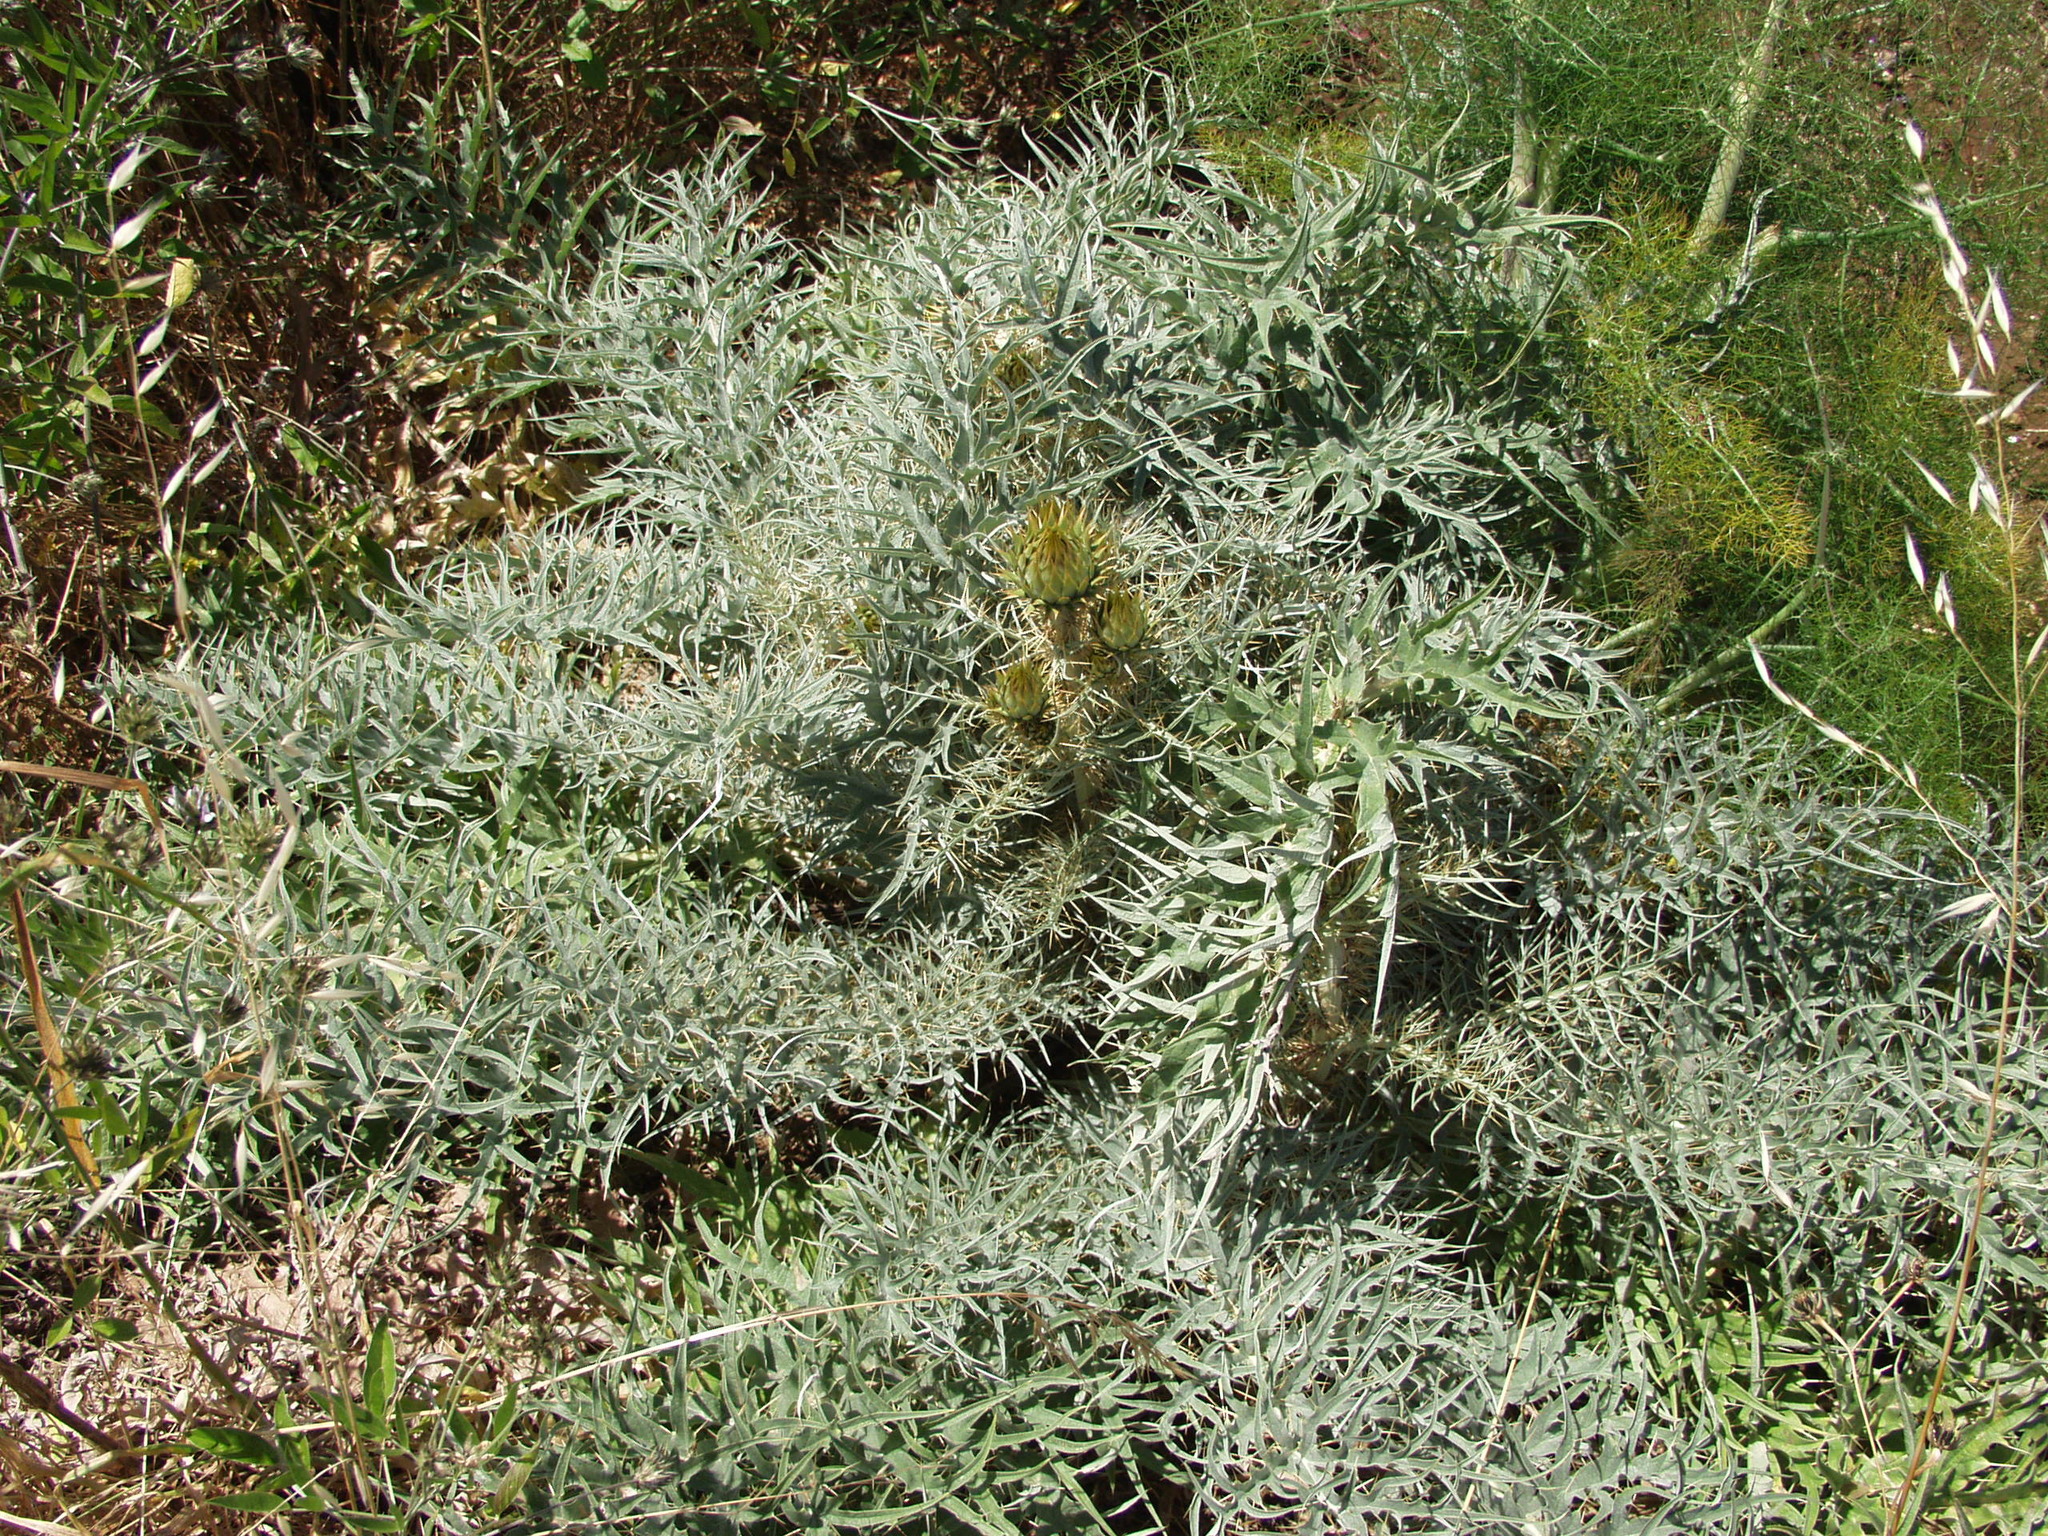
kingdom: Plantae
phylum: Tracheophyta
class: Magnoliopsida
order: Asterales
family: Asteraceae
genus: Cynara
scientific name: Cynara cardunculus
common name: Globe artichoke
